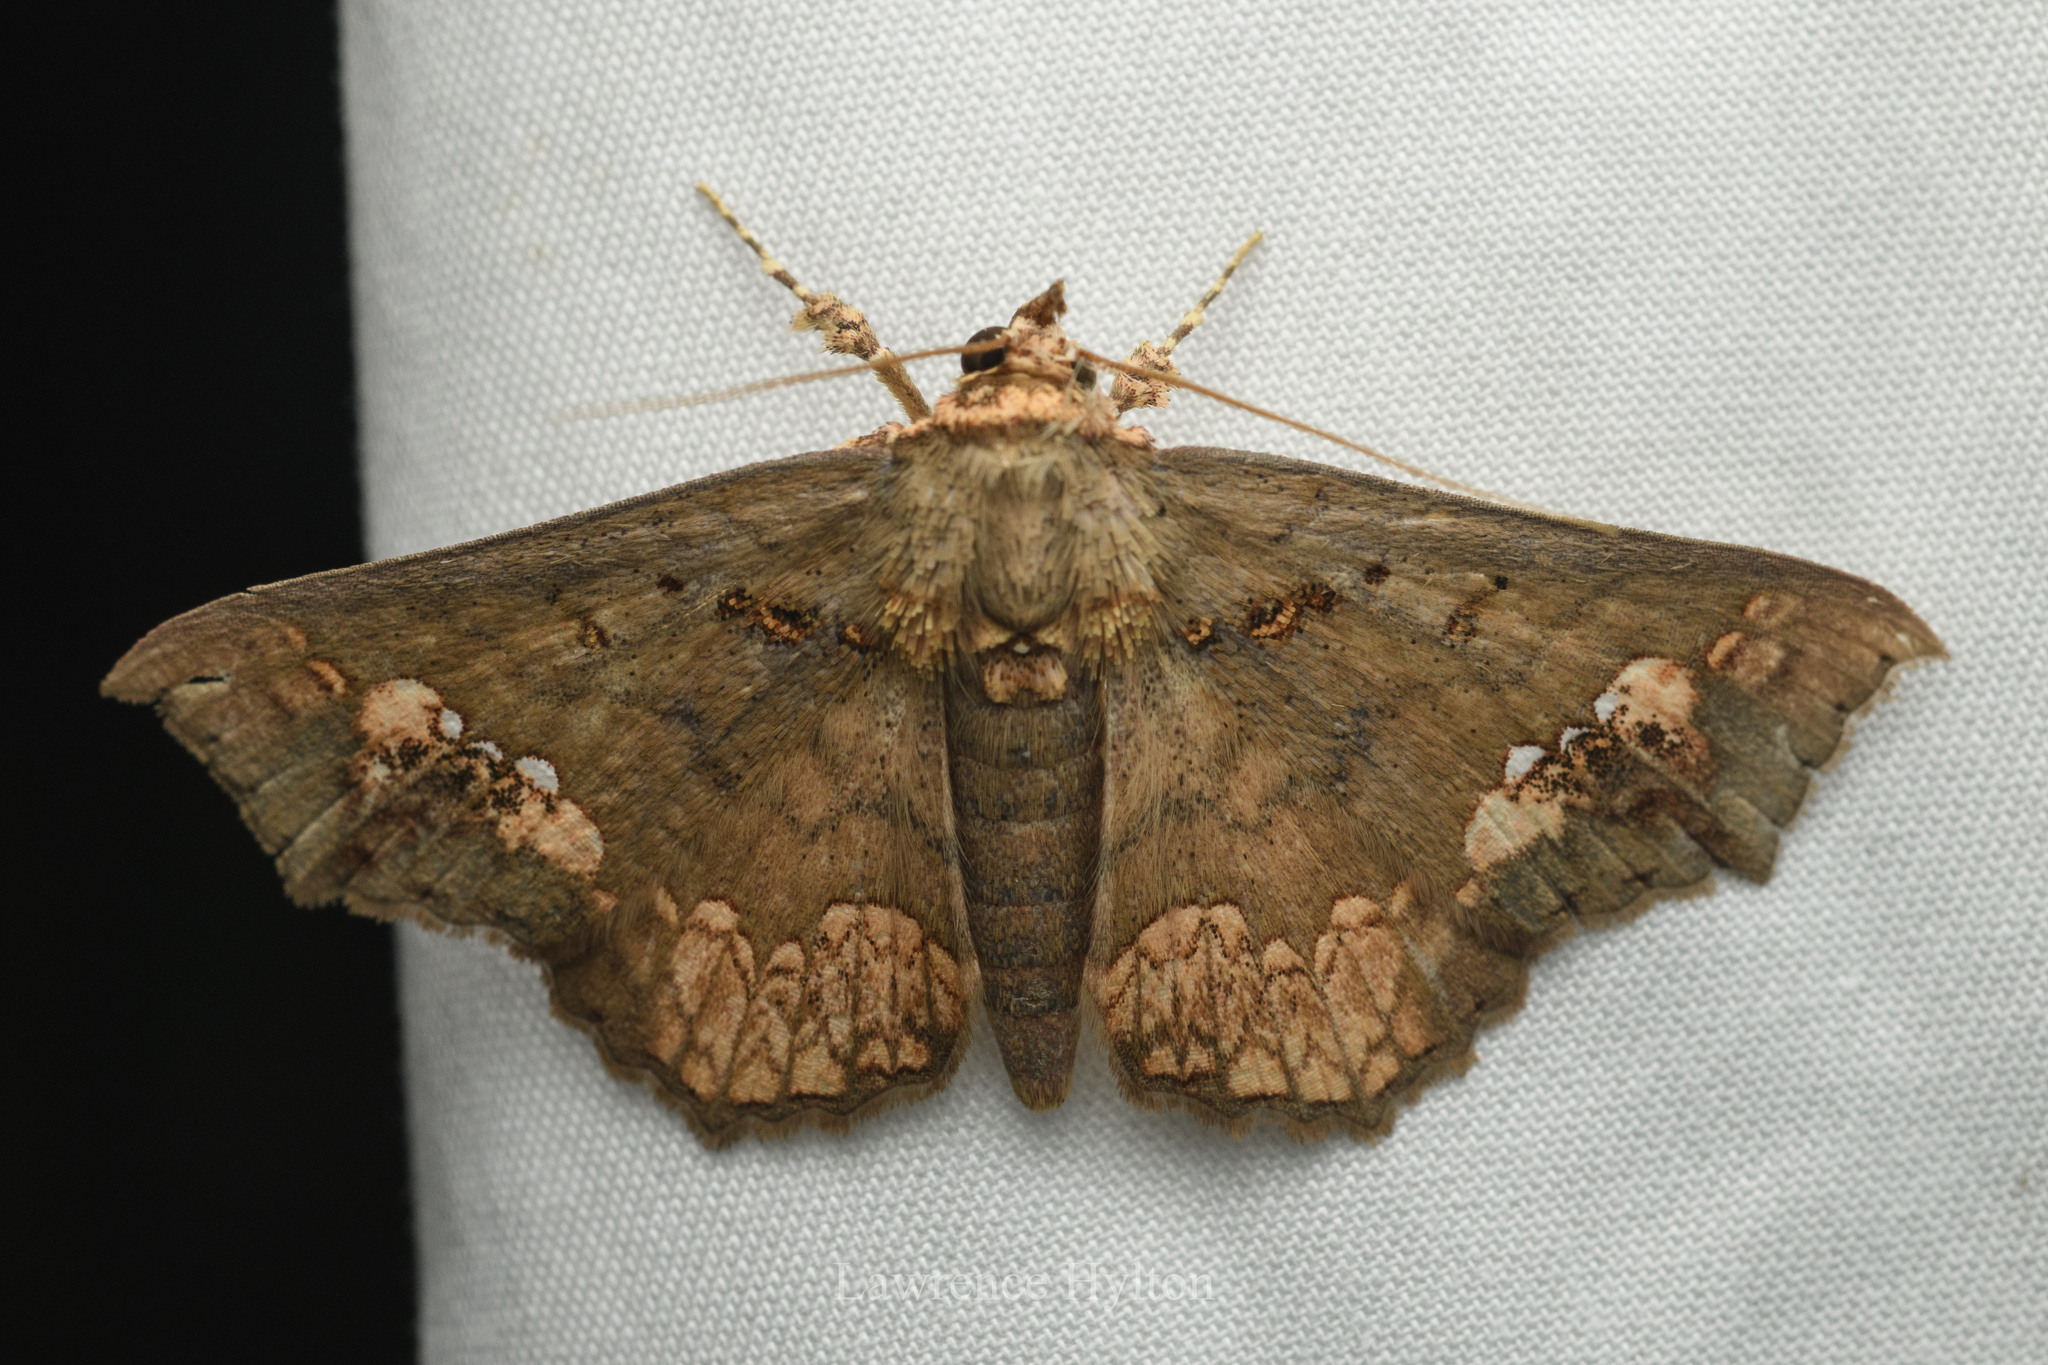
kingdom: Animalia
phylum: Arthropoda
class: Insecta
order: Lepidoptera
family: Erebidae
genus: Lopharthrum
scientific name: Lopharthrum comprimens
